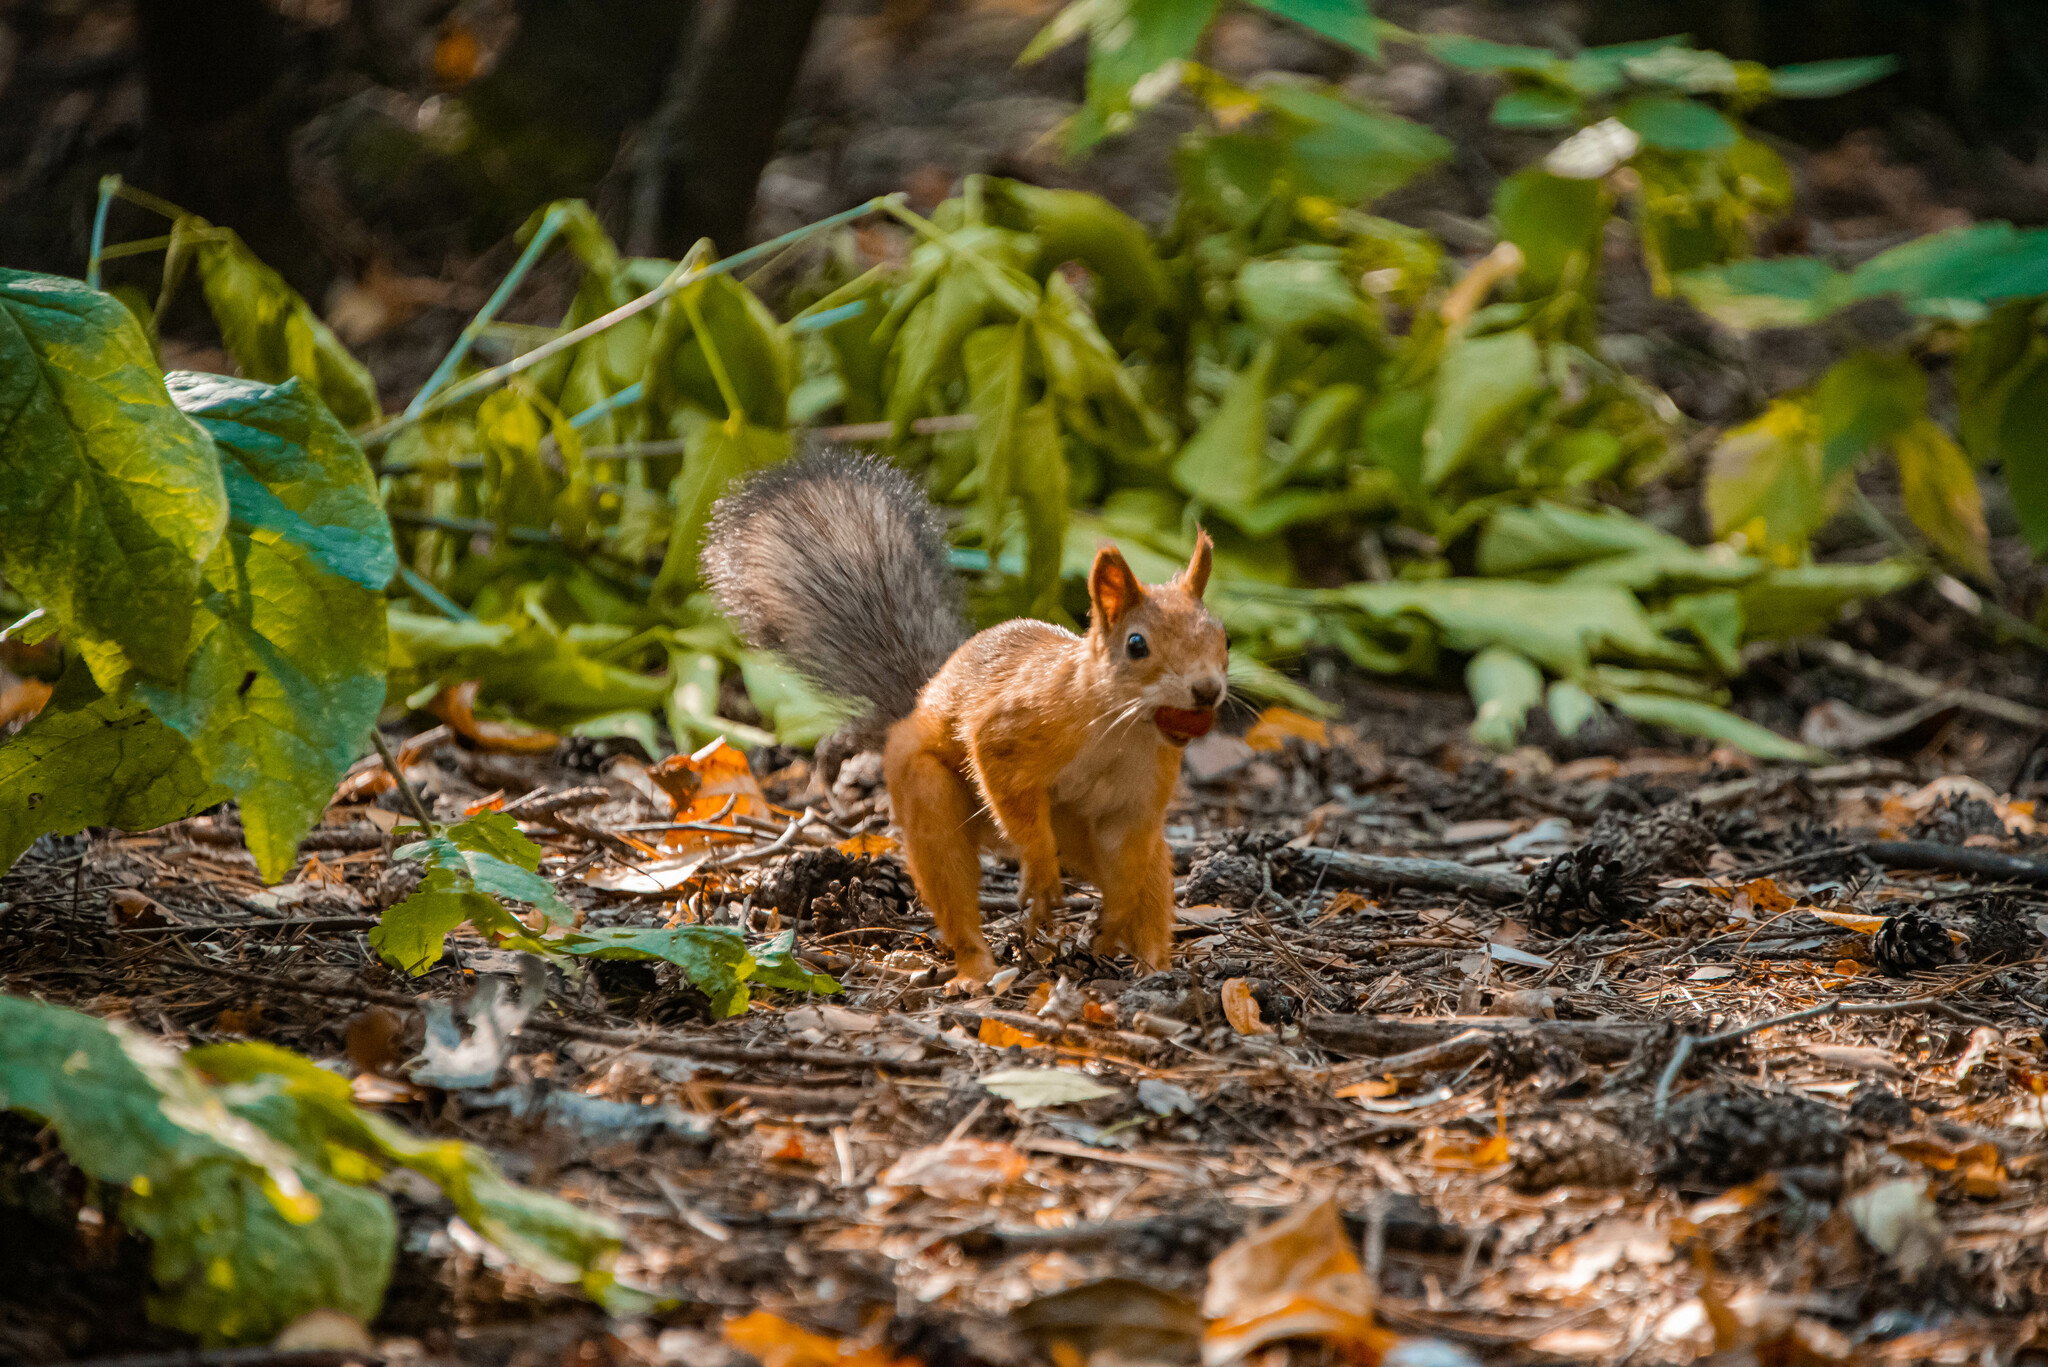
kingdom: Animalia
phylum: Chordata
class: Mammalia
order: Rodentia
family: Sciuridae
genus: Sciurus
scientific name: Sciurus vulgaris
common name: Eurasian red squirrel
